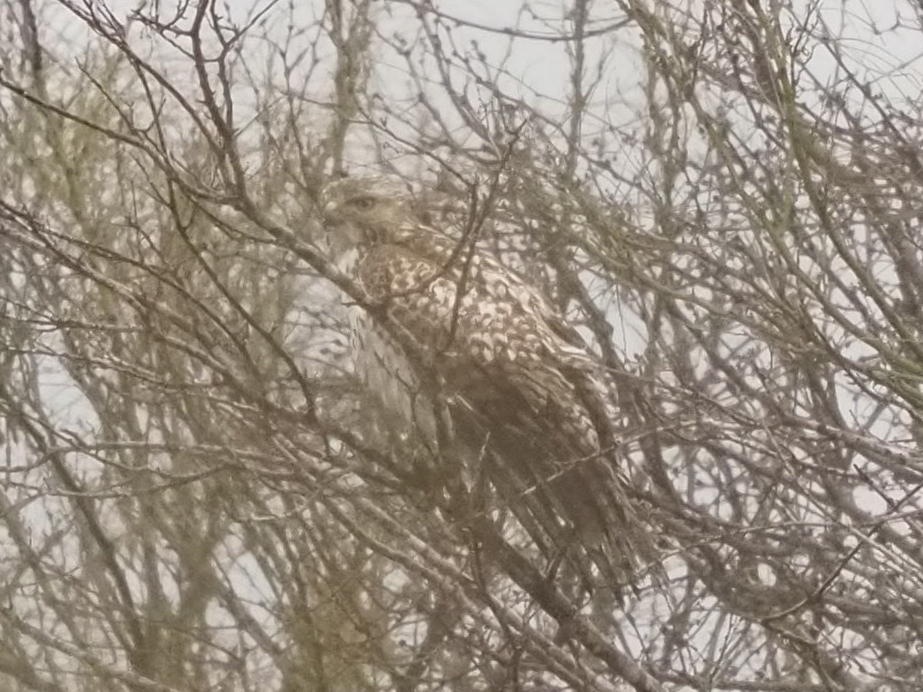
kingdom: Animalia
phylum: Chordata
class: Aves
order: Accipitriformes
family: Accipitridae
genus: Buteo
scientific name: Buteo lineatus
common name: Red-shouldered hawk
